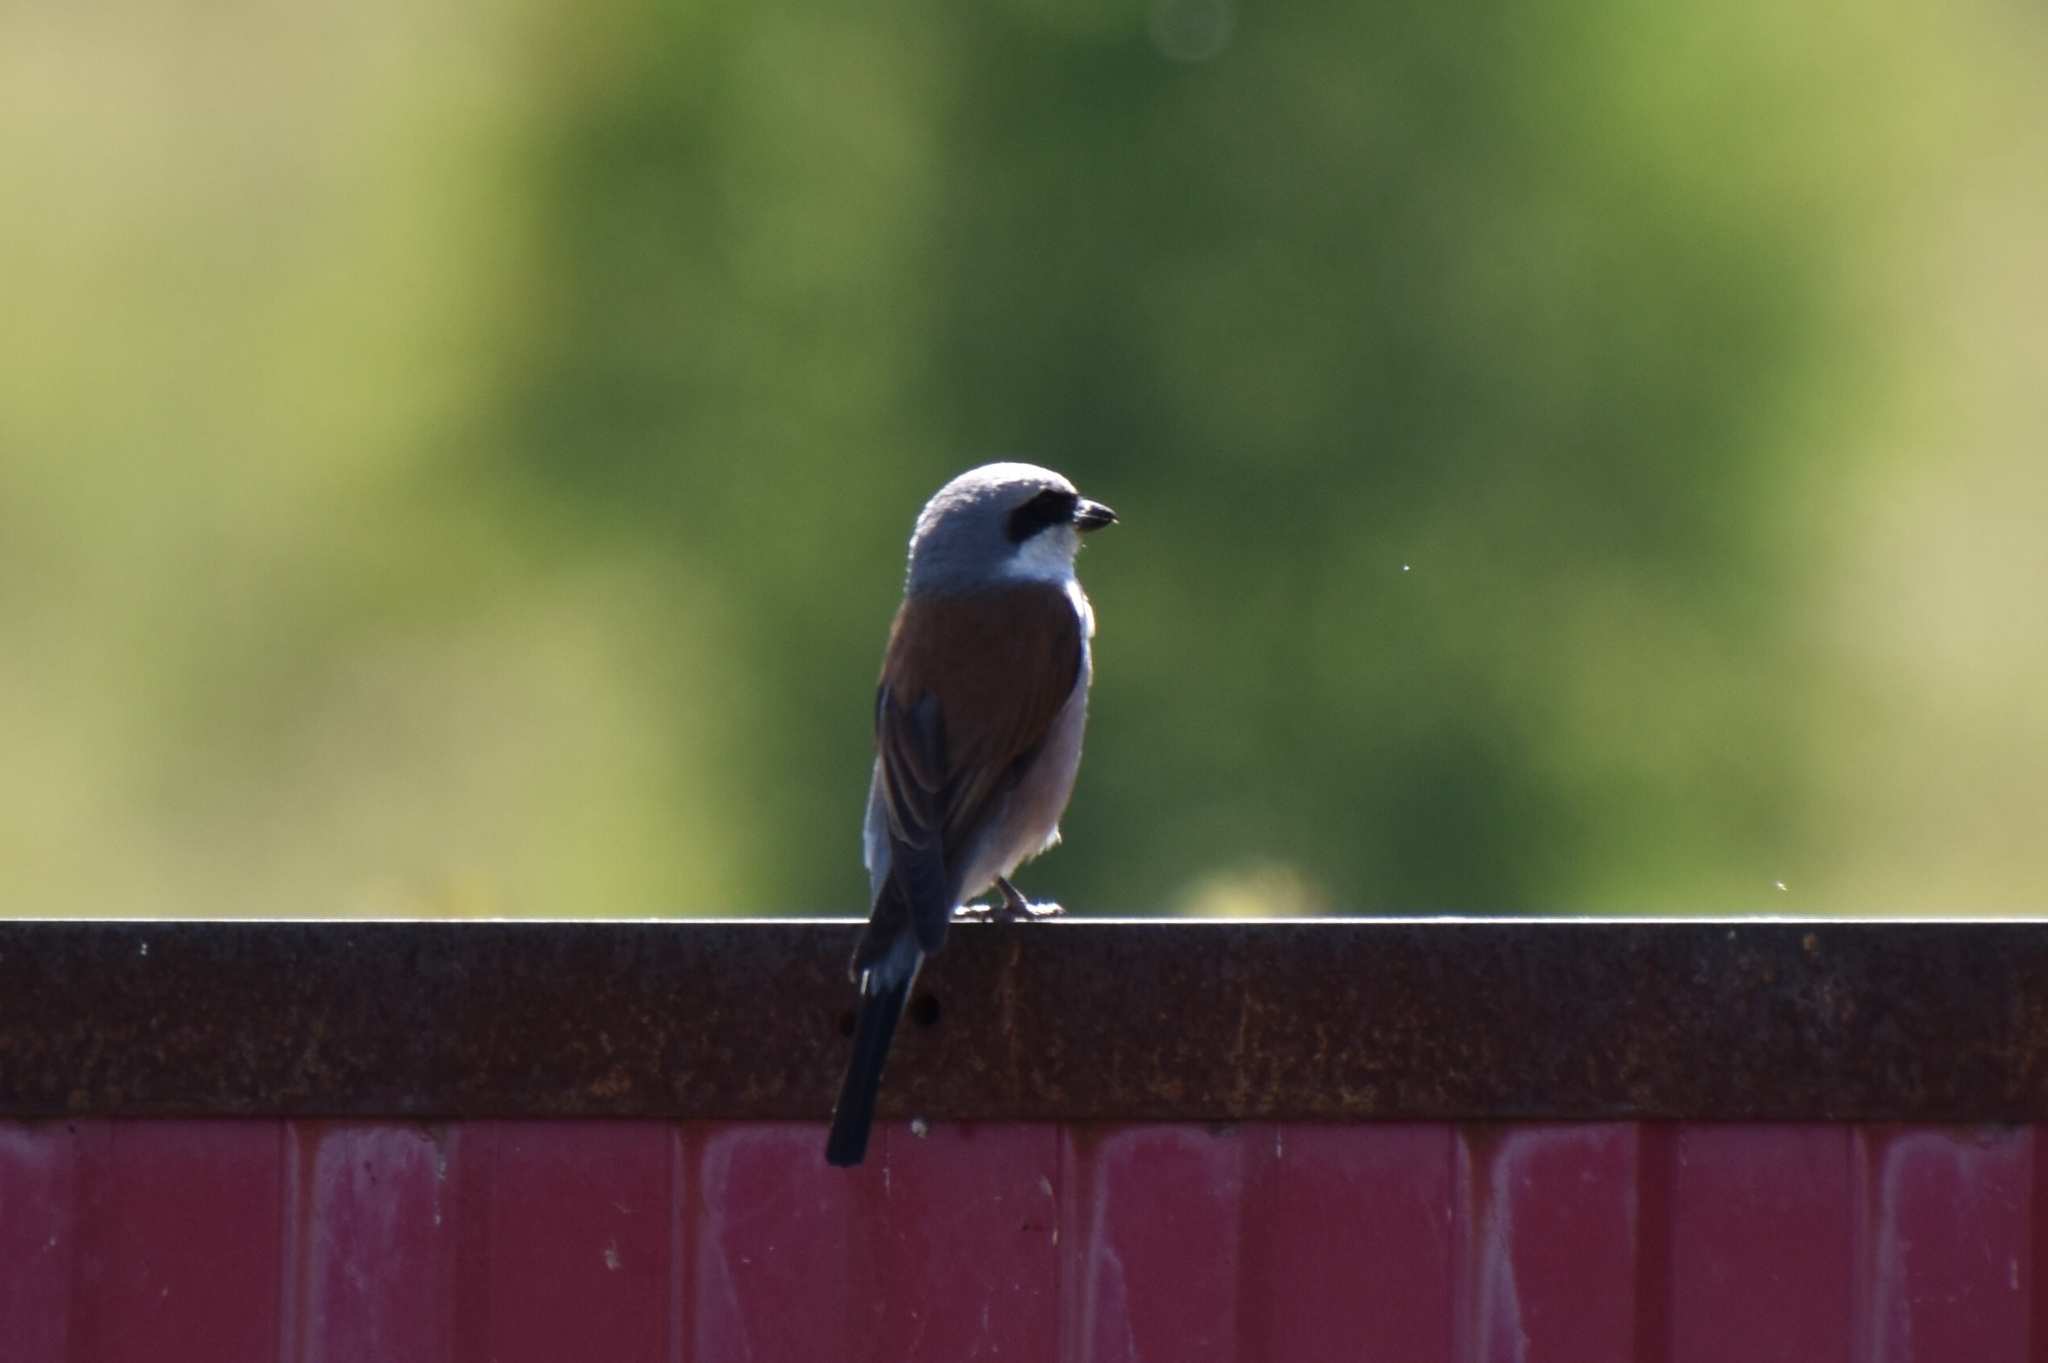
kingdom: Animalia
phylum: Chordata
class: Aves
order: Passeriformes
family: Laniidae
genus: Lanius
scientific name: Lanius collurio
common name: Red-backed shrike
